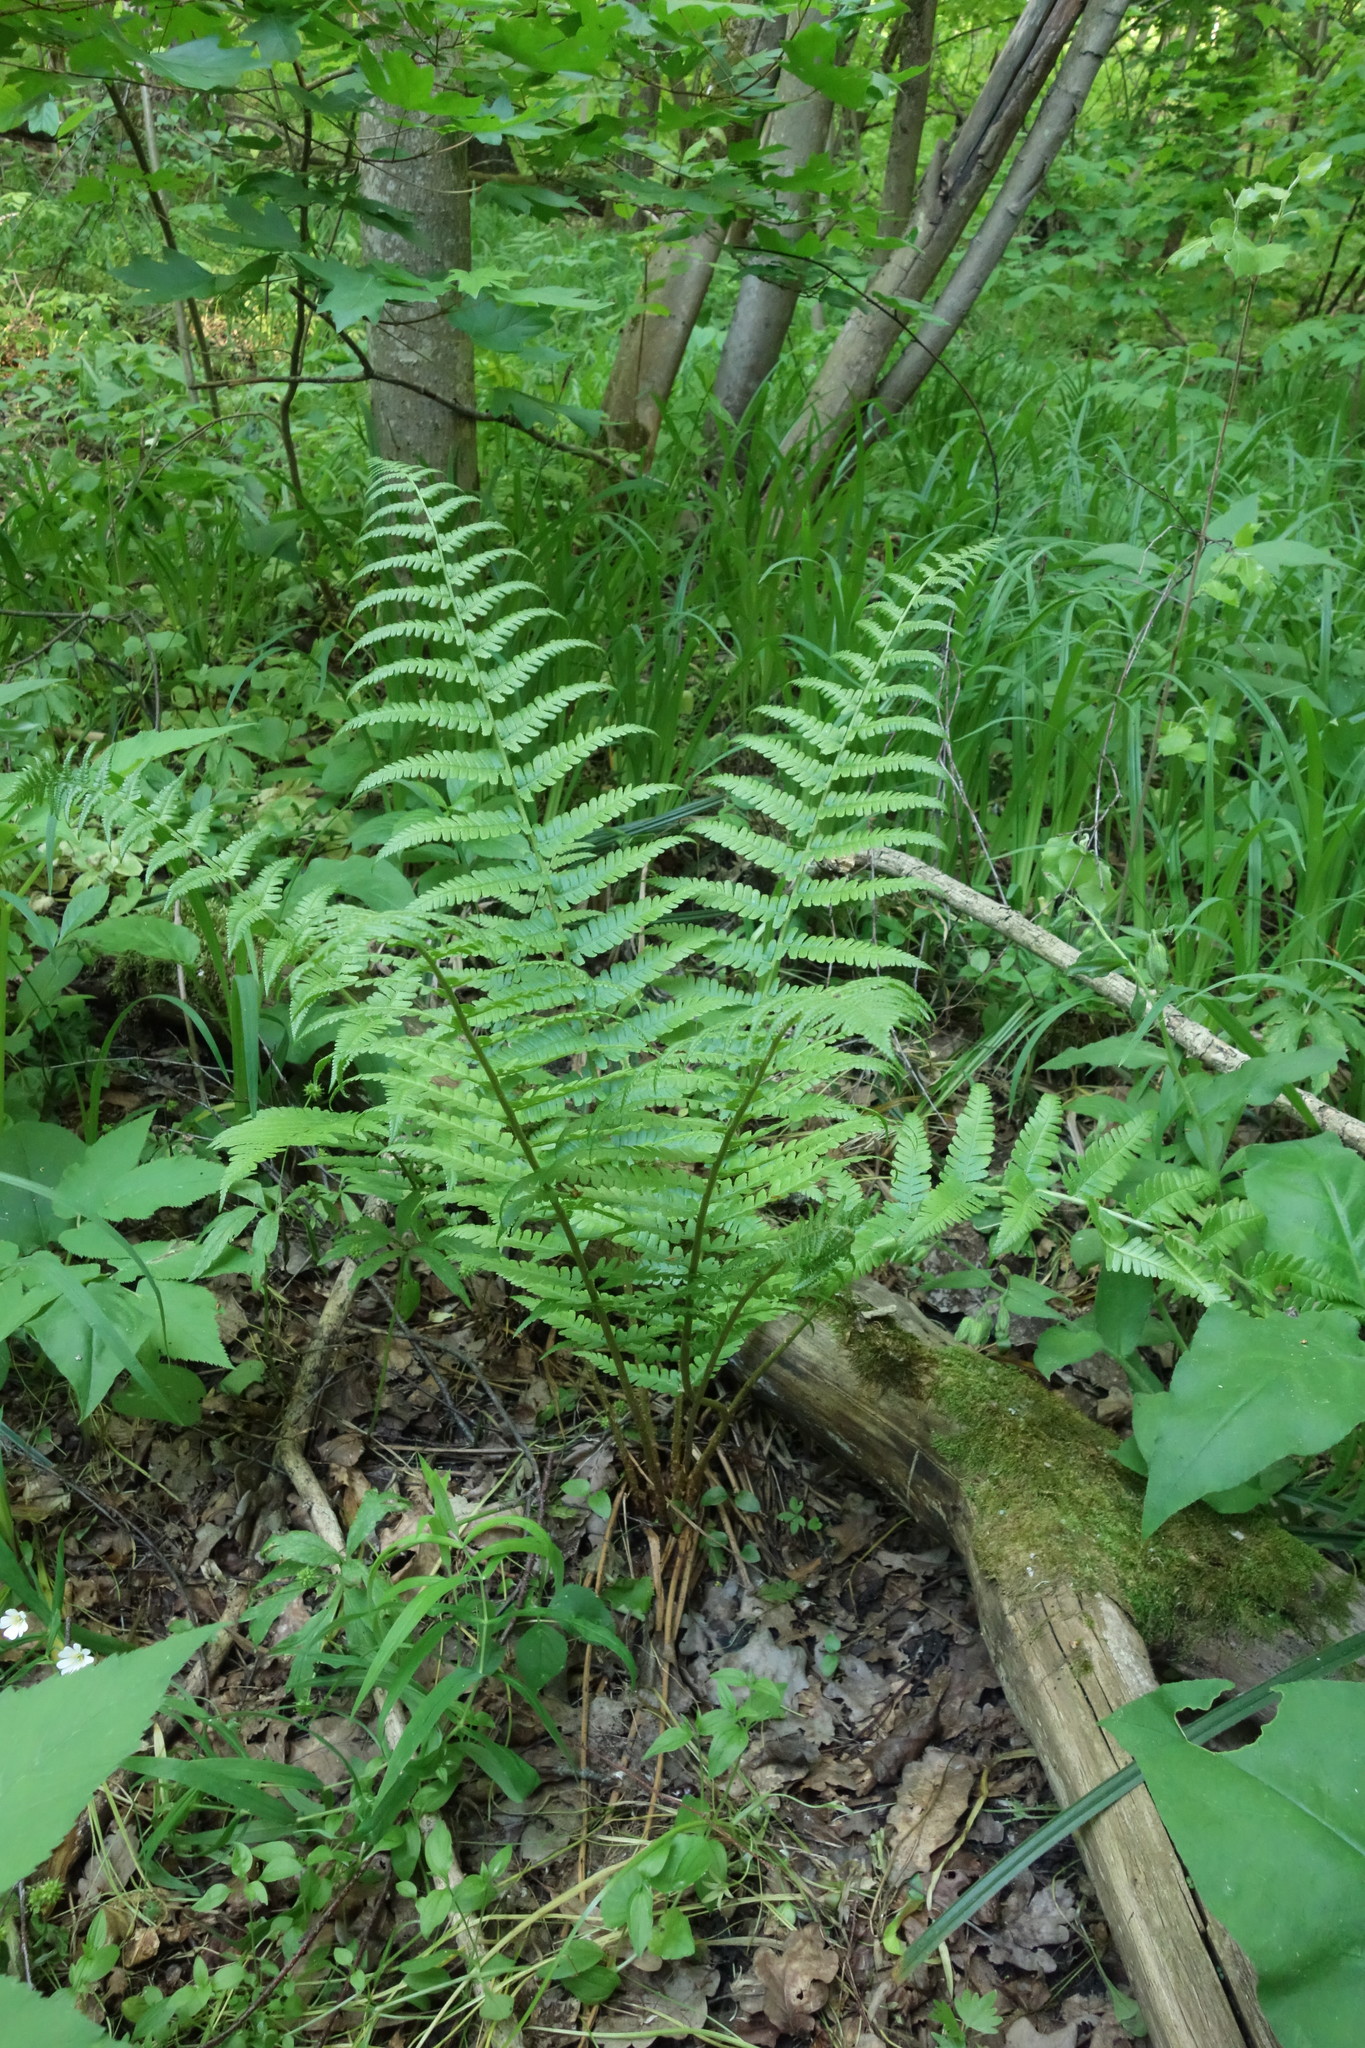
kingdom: Plantae
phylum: Tracheophyta
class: Polypodiopsida
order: Polypodiales
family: Dryopteridaceae
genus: Dryopteris
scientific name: Dryopteris filix-mas
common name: Male fern
